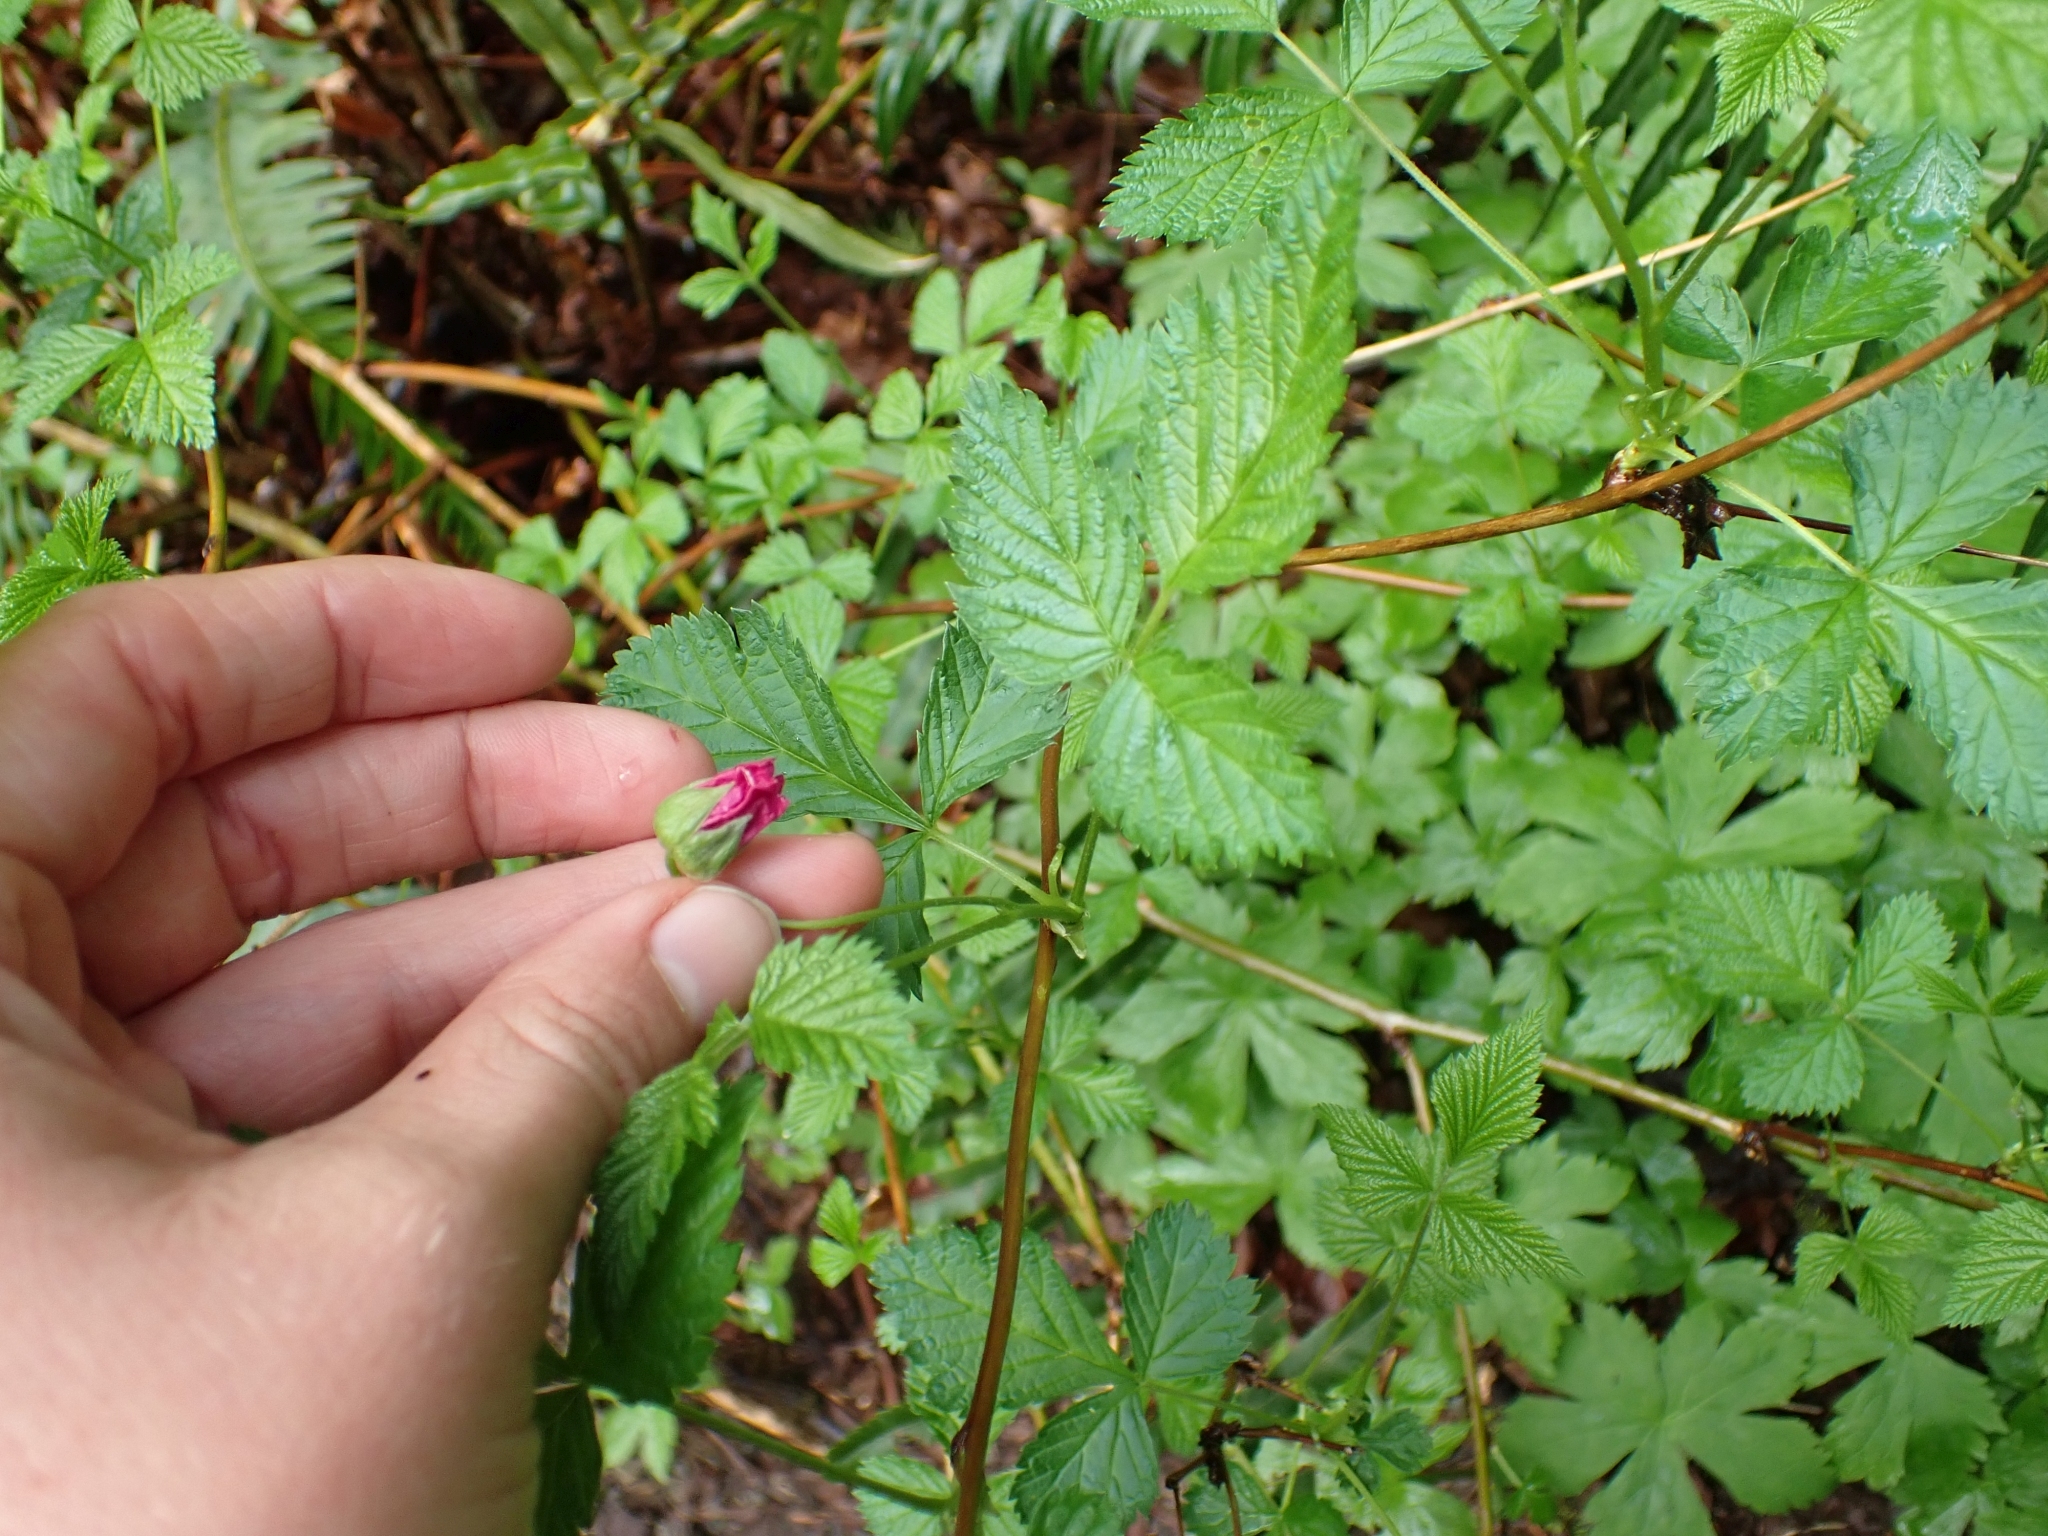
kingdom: Plantae
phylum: Tracheophyta
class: Magnoliopsida
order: Rosales
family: Rosaceae
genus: Rubus
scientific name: Rubus spectabilis
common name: Salmonberry
